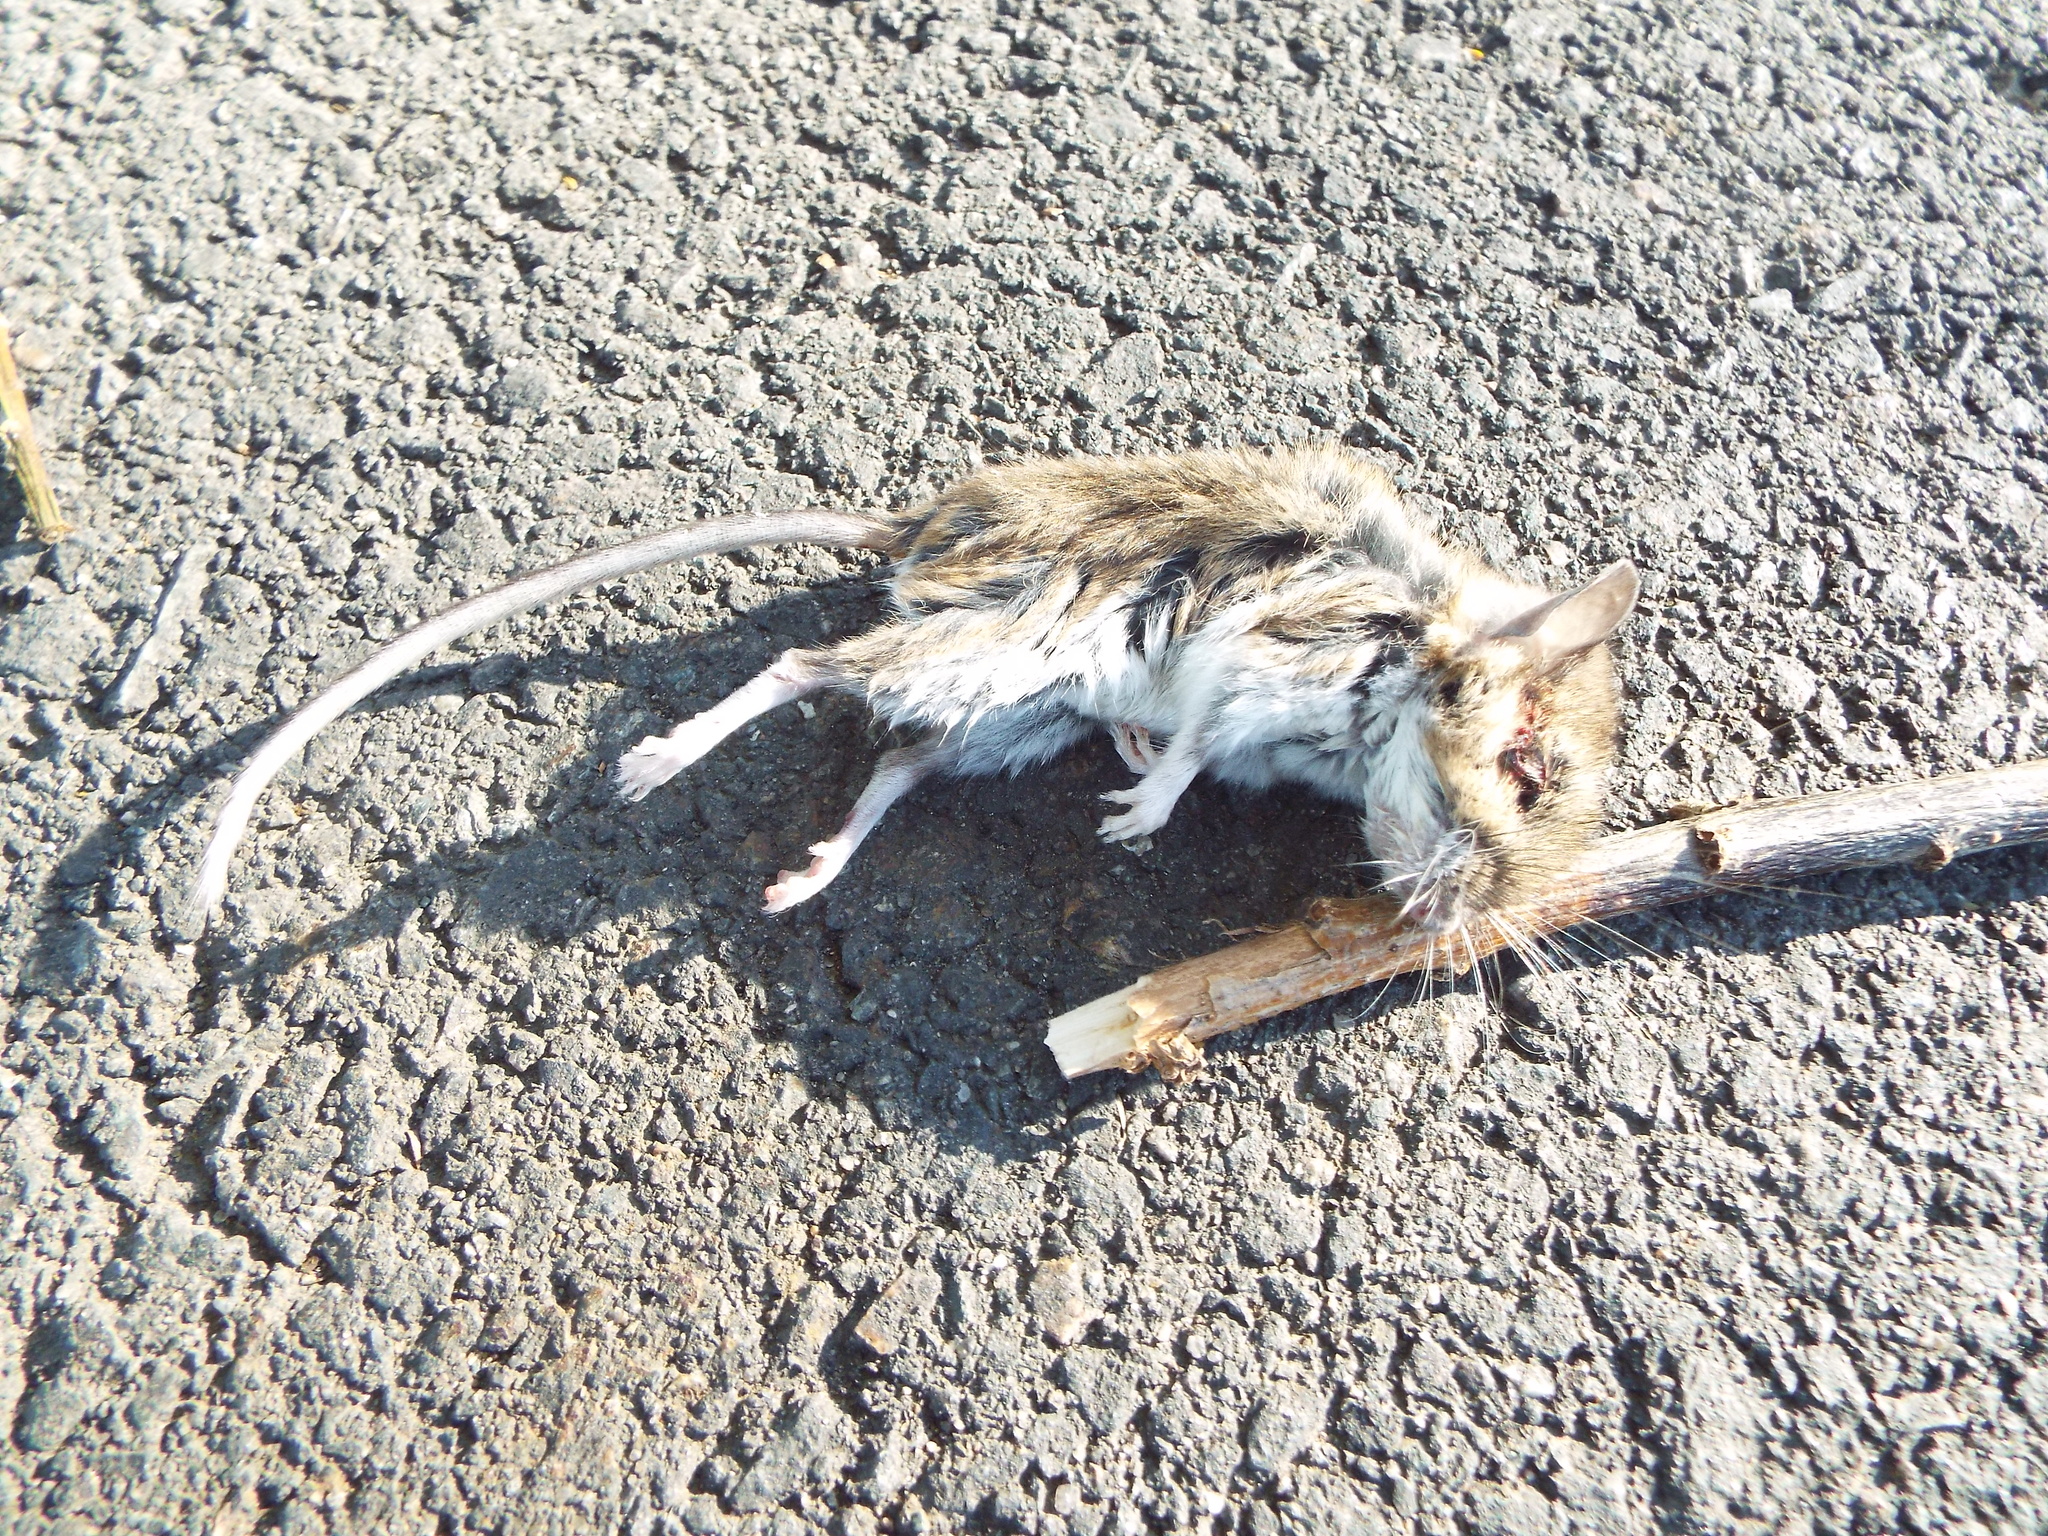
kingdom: Animalia
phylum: Chordata
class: Mammalia
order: Rodentia
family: Cricetidae
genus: Peromyscus
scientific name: Peromyscus leucopus
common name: White-footed deermouse
